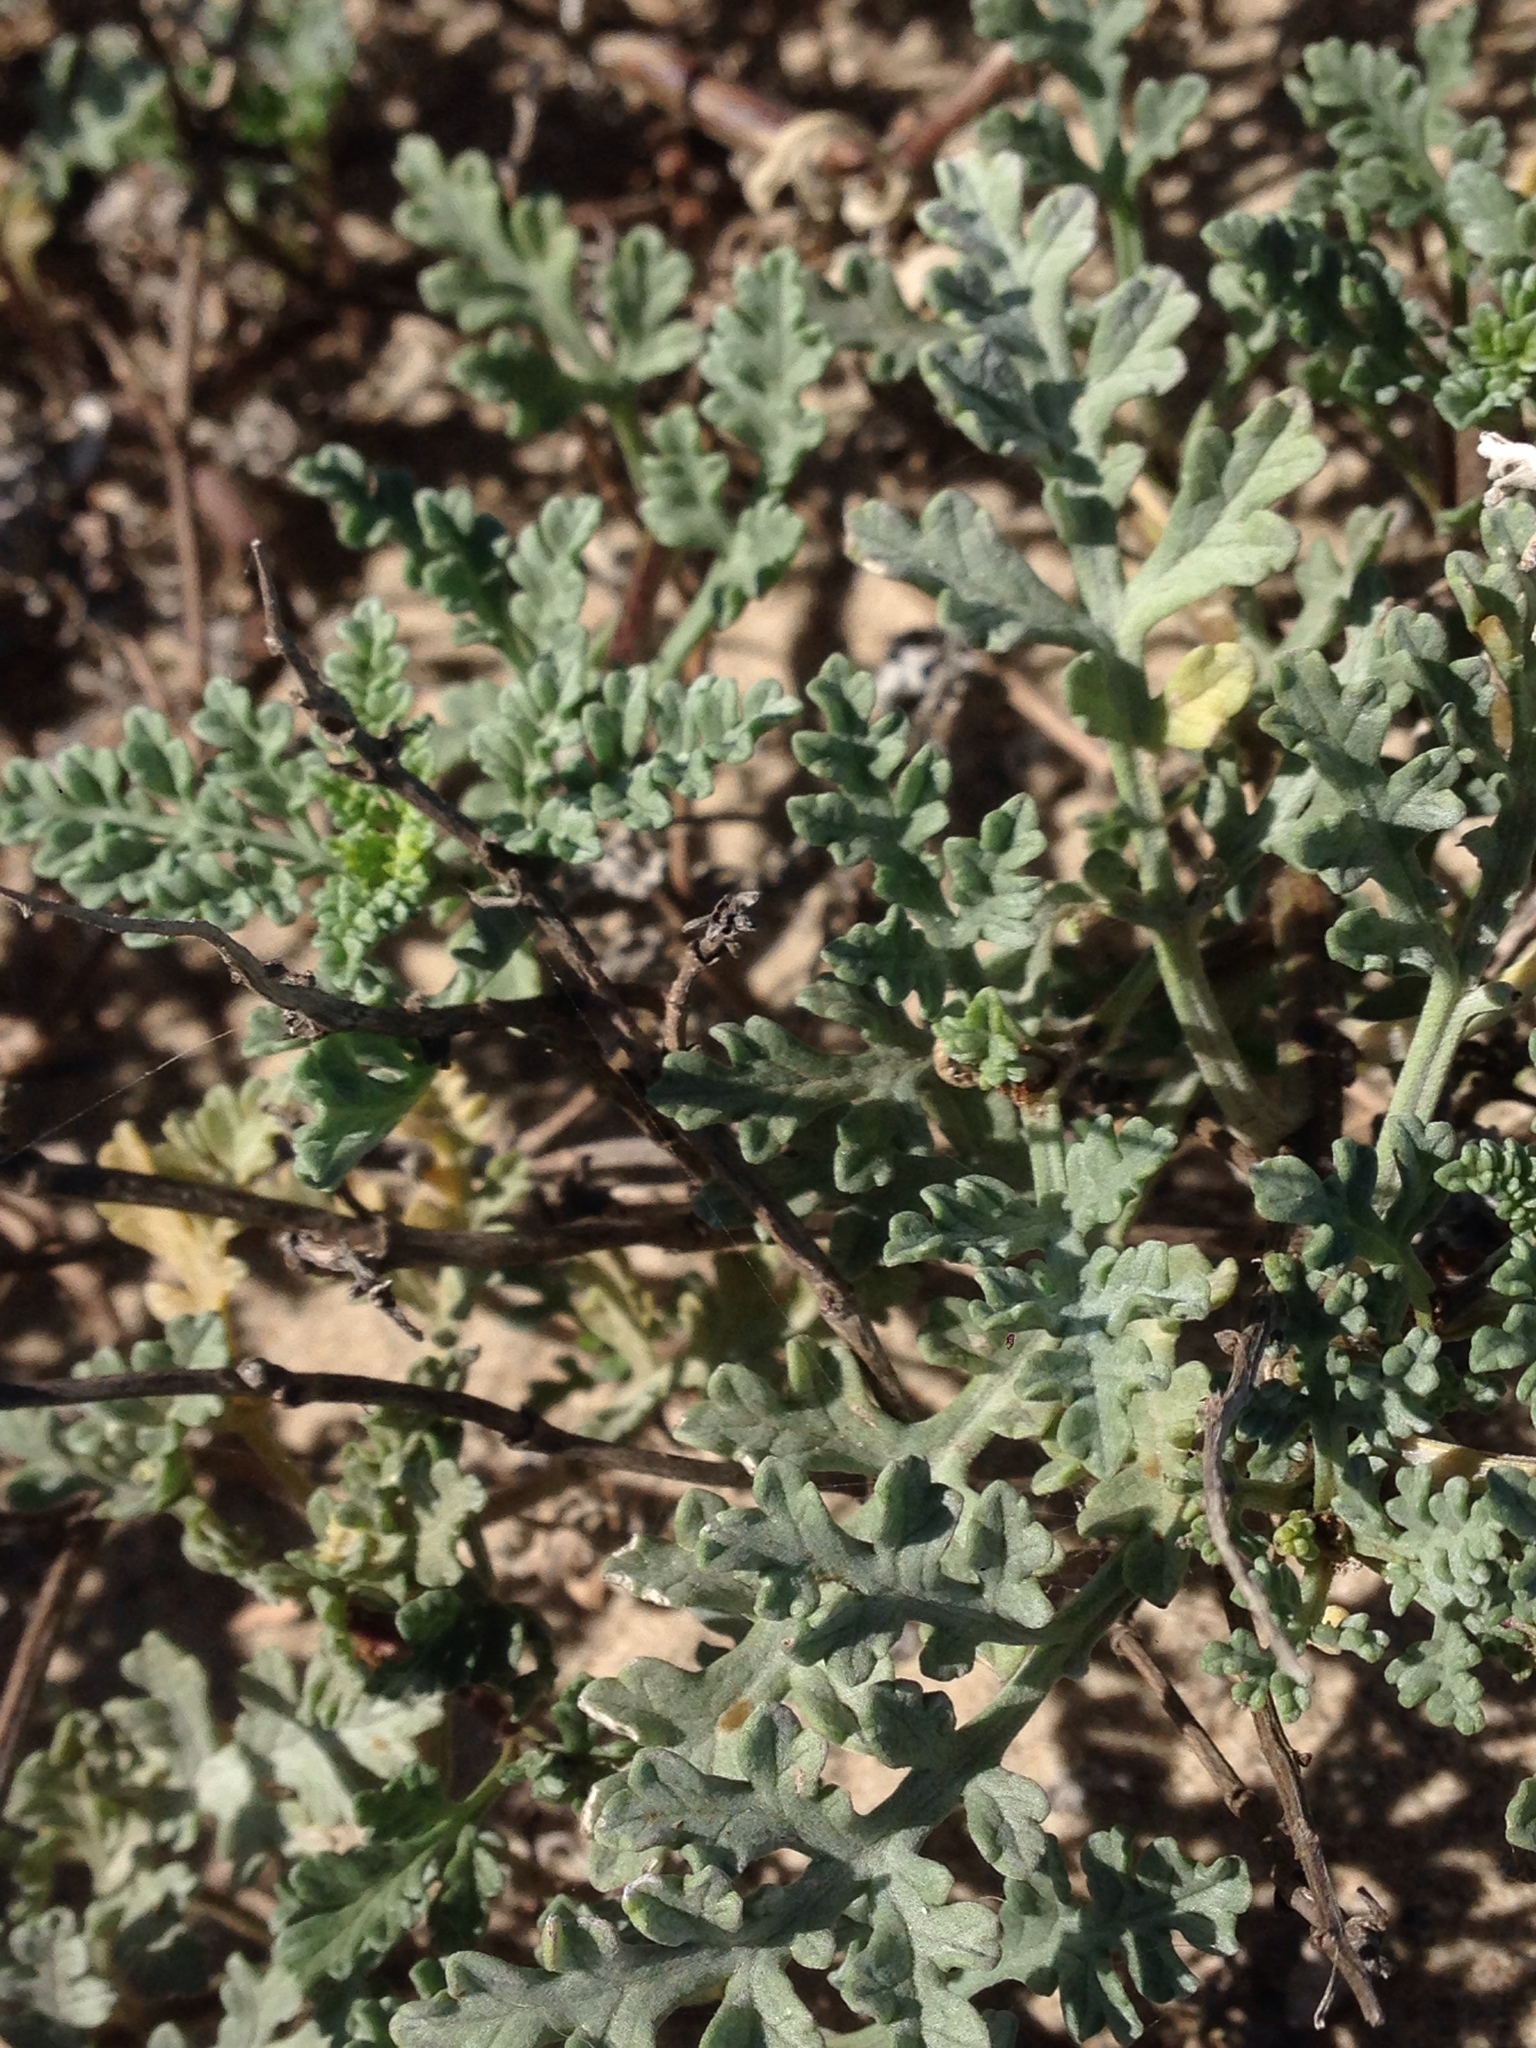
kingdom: Plantae
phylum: Tracheophyta
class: Magnoliopsida
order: Asterales
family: Asteraceae
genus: Ambrosia
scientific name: Ambrosia chamissonis
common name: Beachbur
